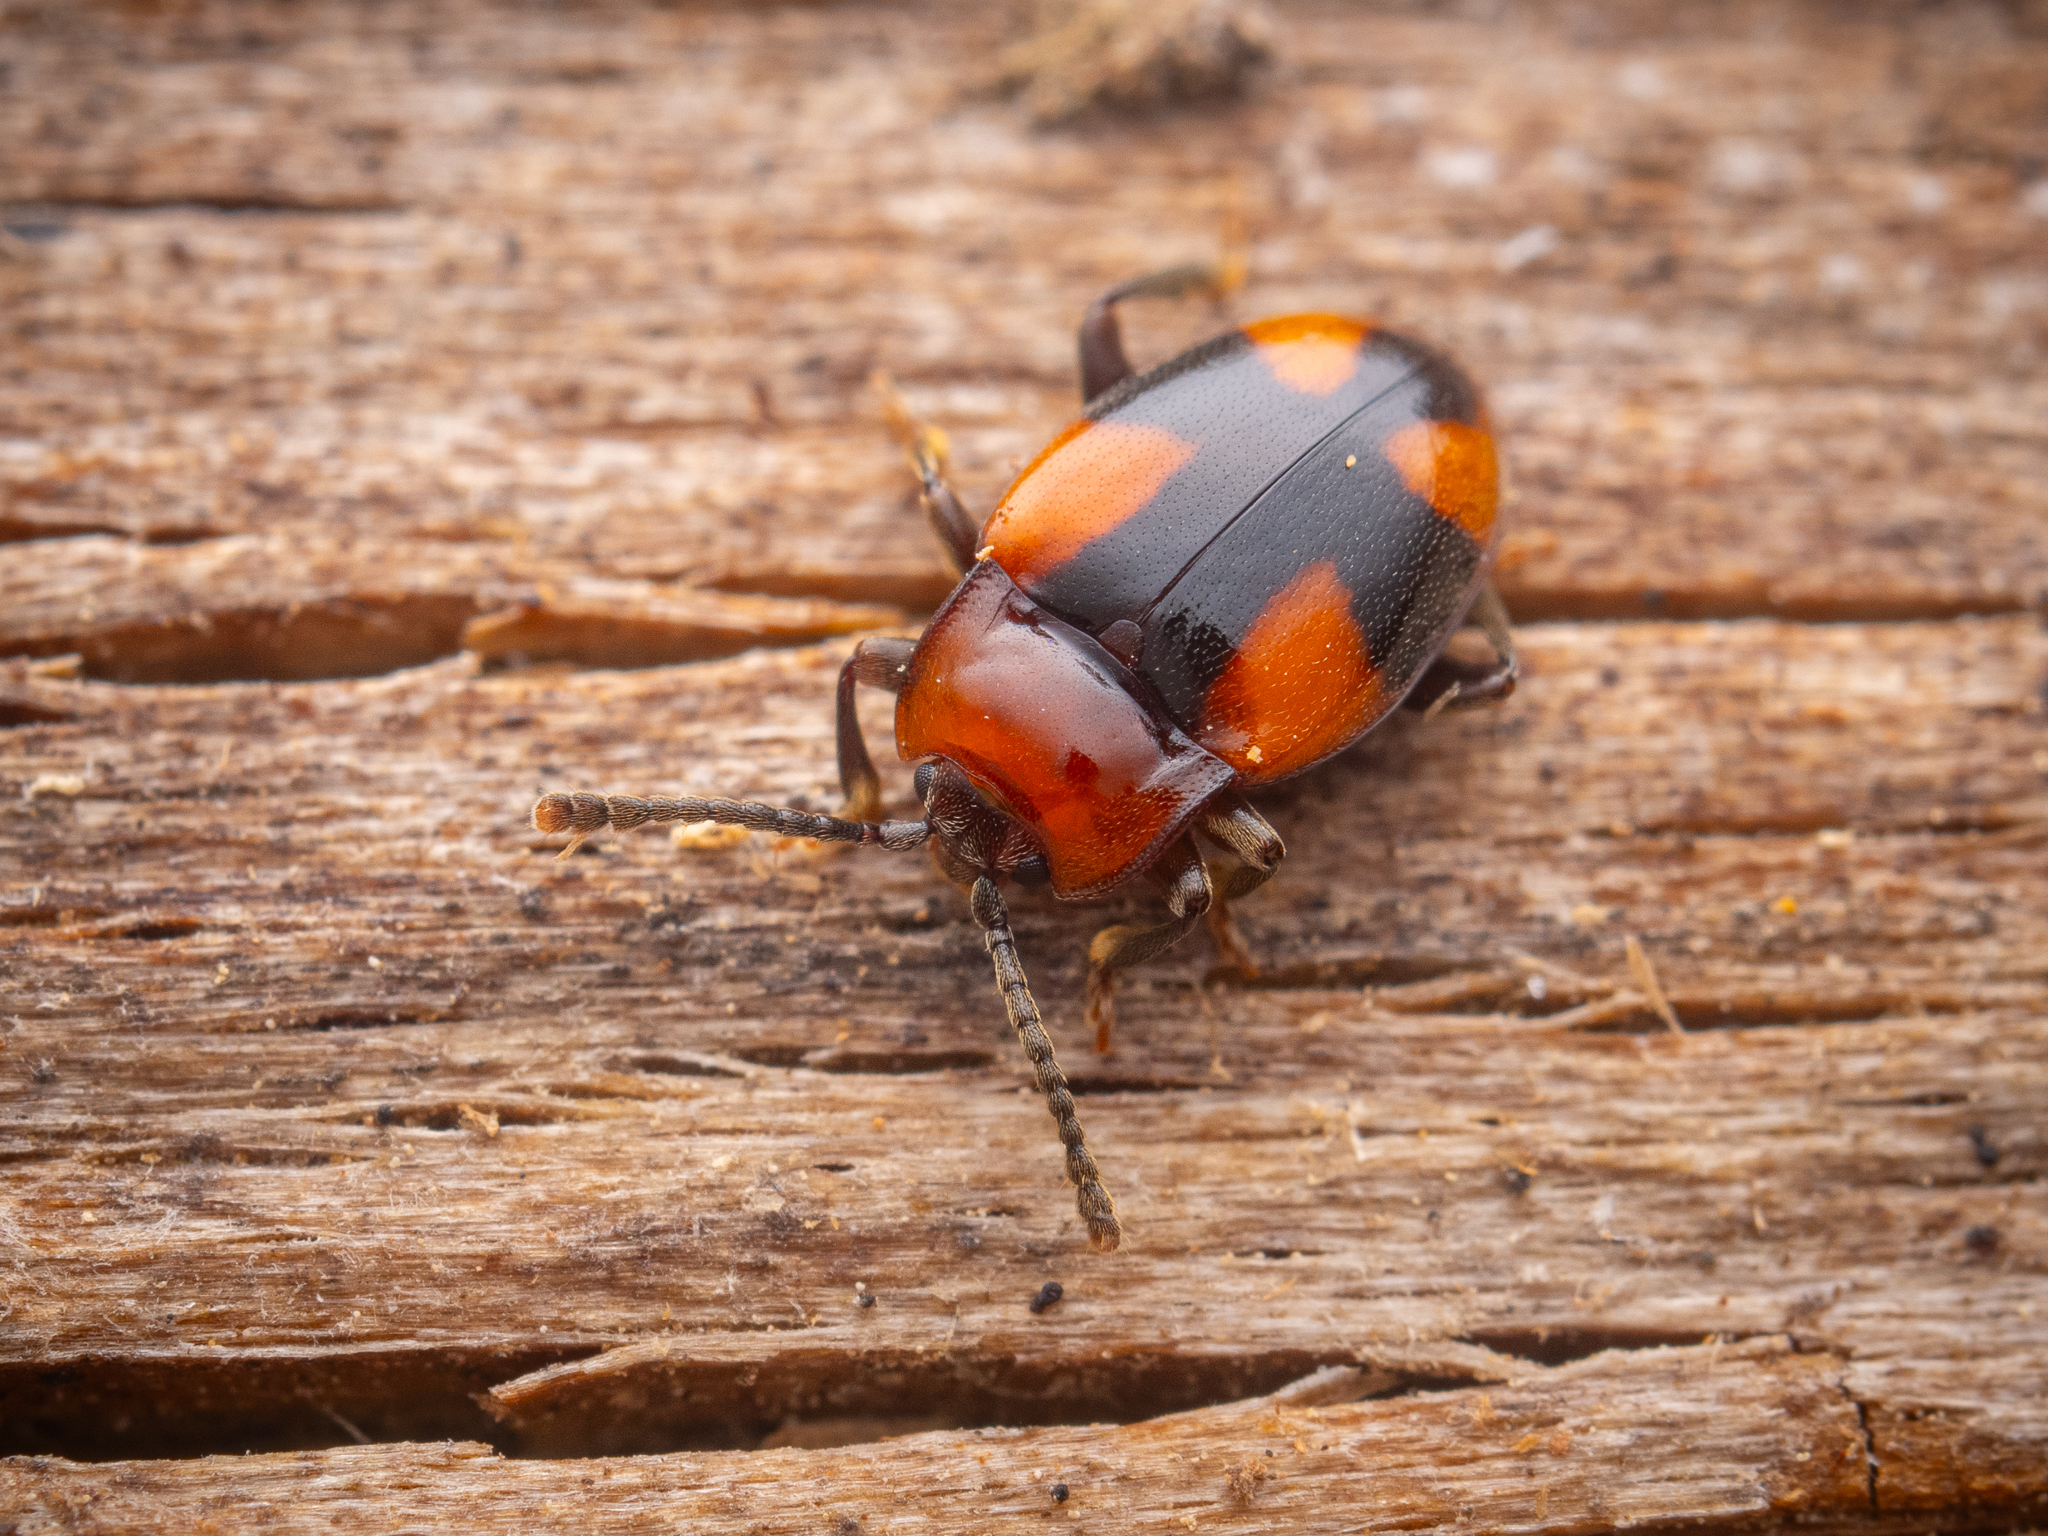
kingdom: Animalia
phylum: Arthropoda
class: Insecta
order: Coleoptera
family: Endomychidae
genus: Mycetina
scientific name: Mycetina cruciata
